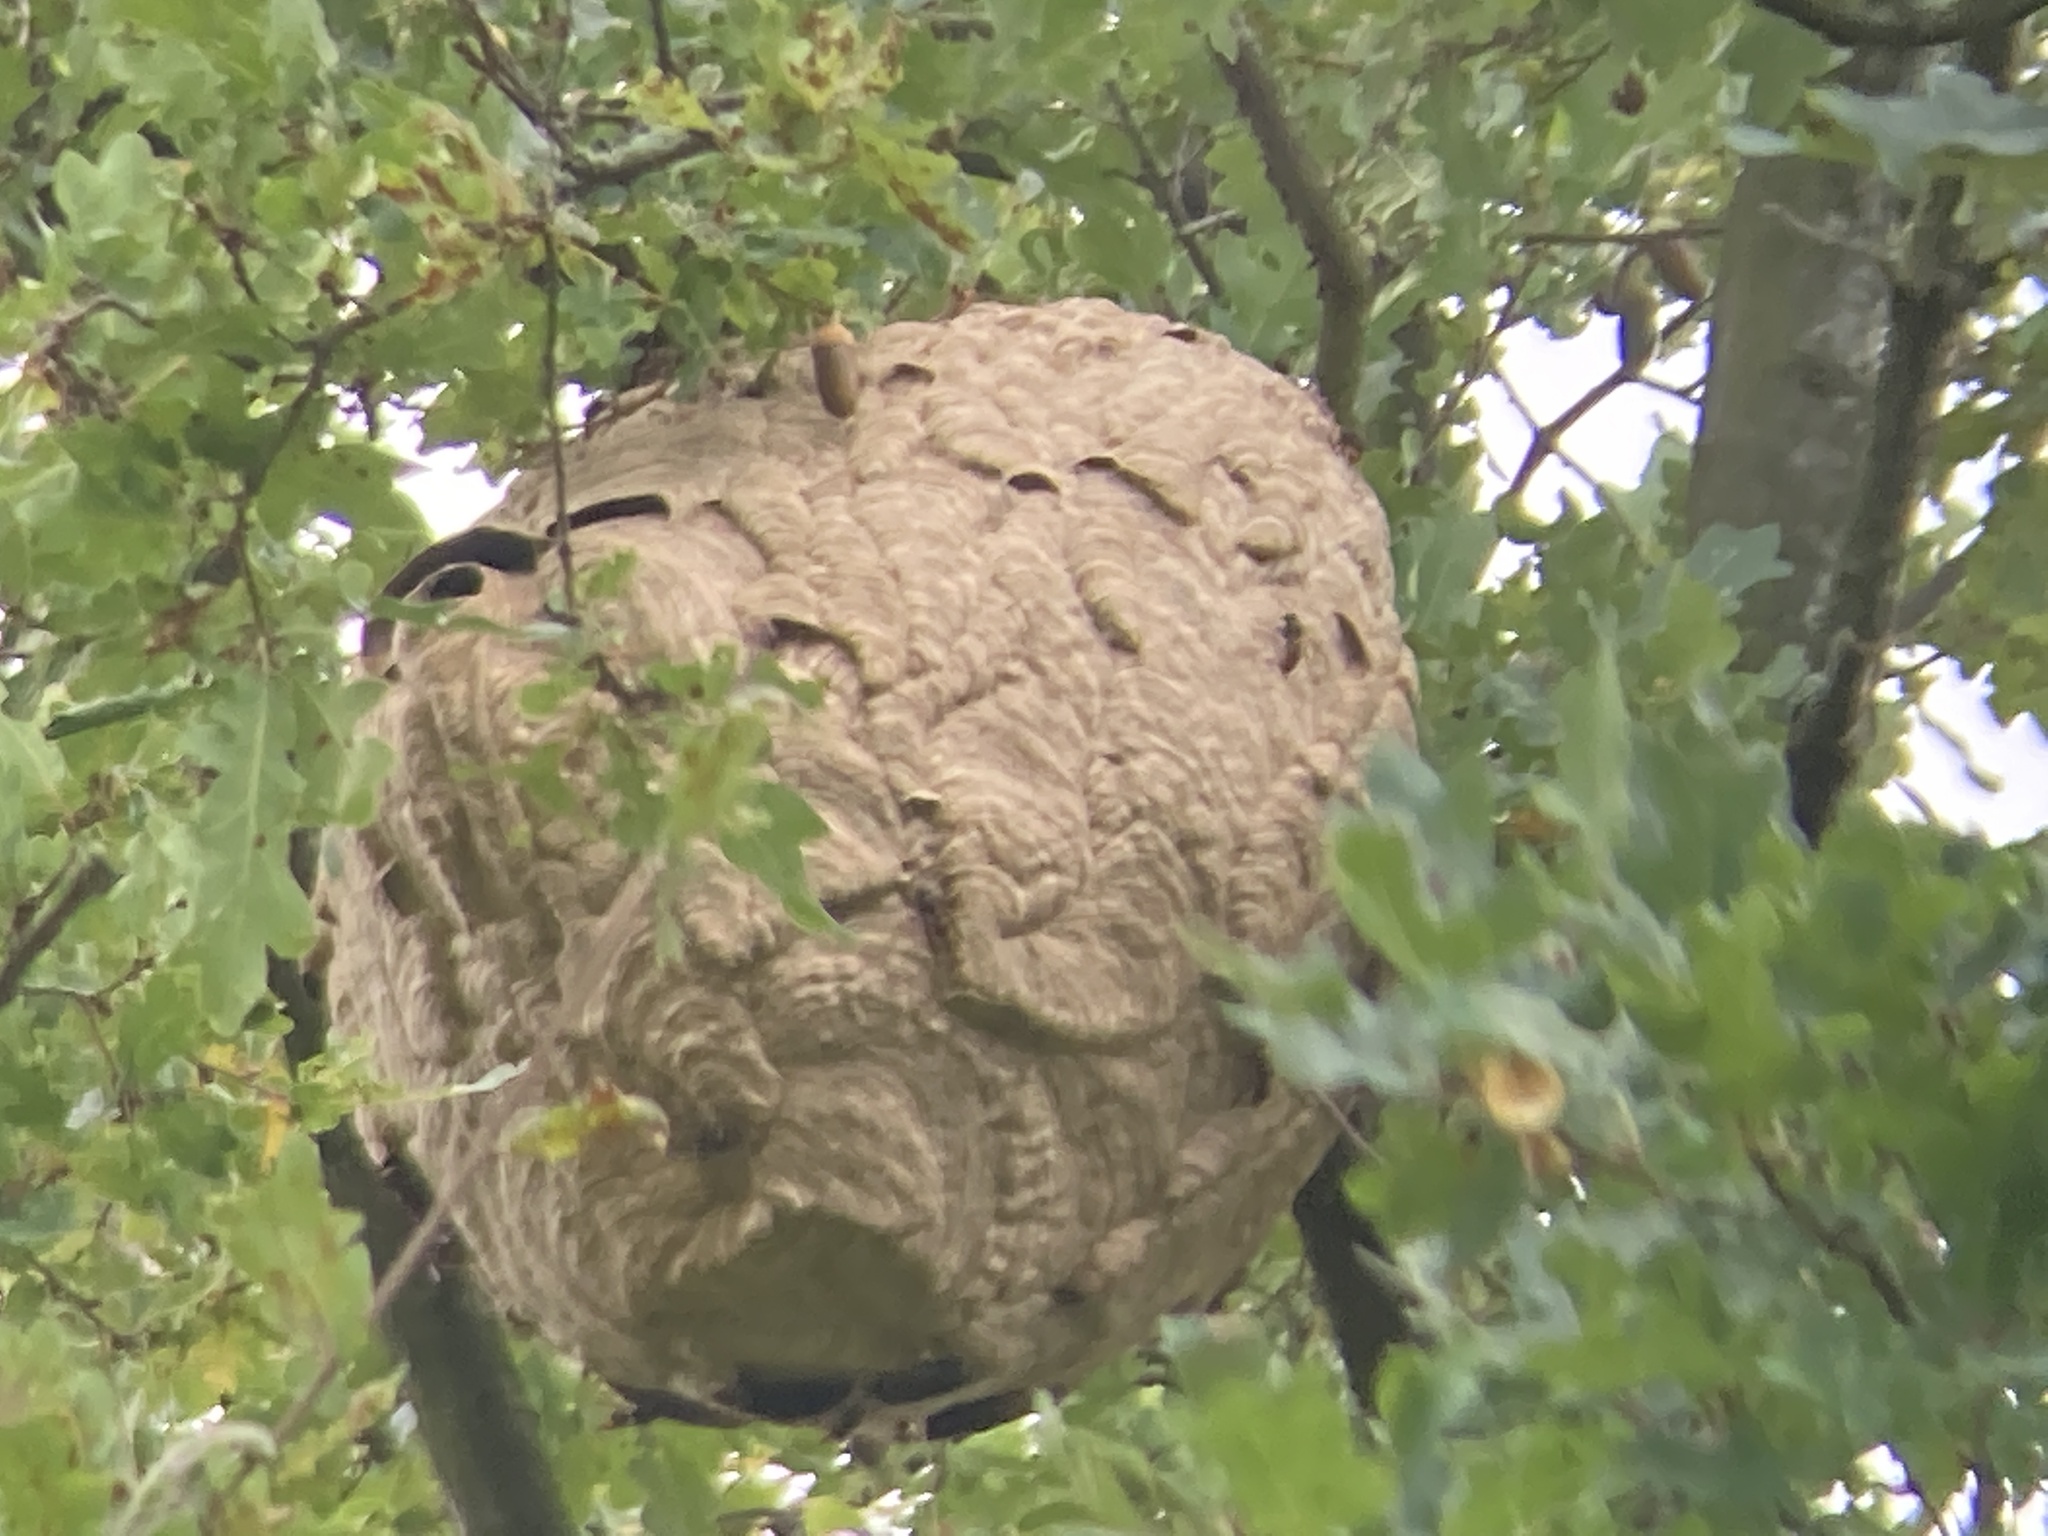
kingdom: Animalia
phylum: Arthropoda
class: Insecta
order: Hymenoptera
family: Vespidae
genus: Vespa
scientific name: Vespa velutina
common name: Asian hornet
